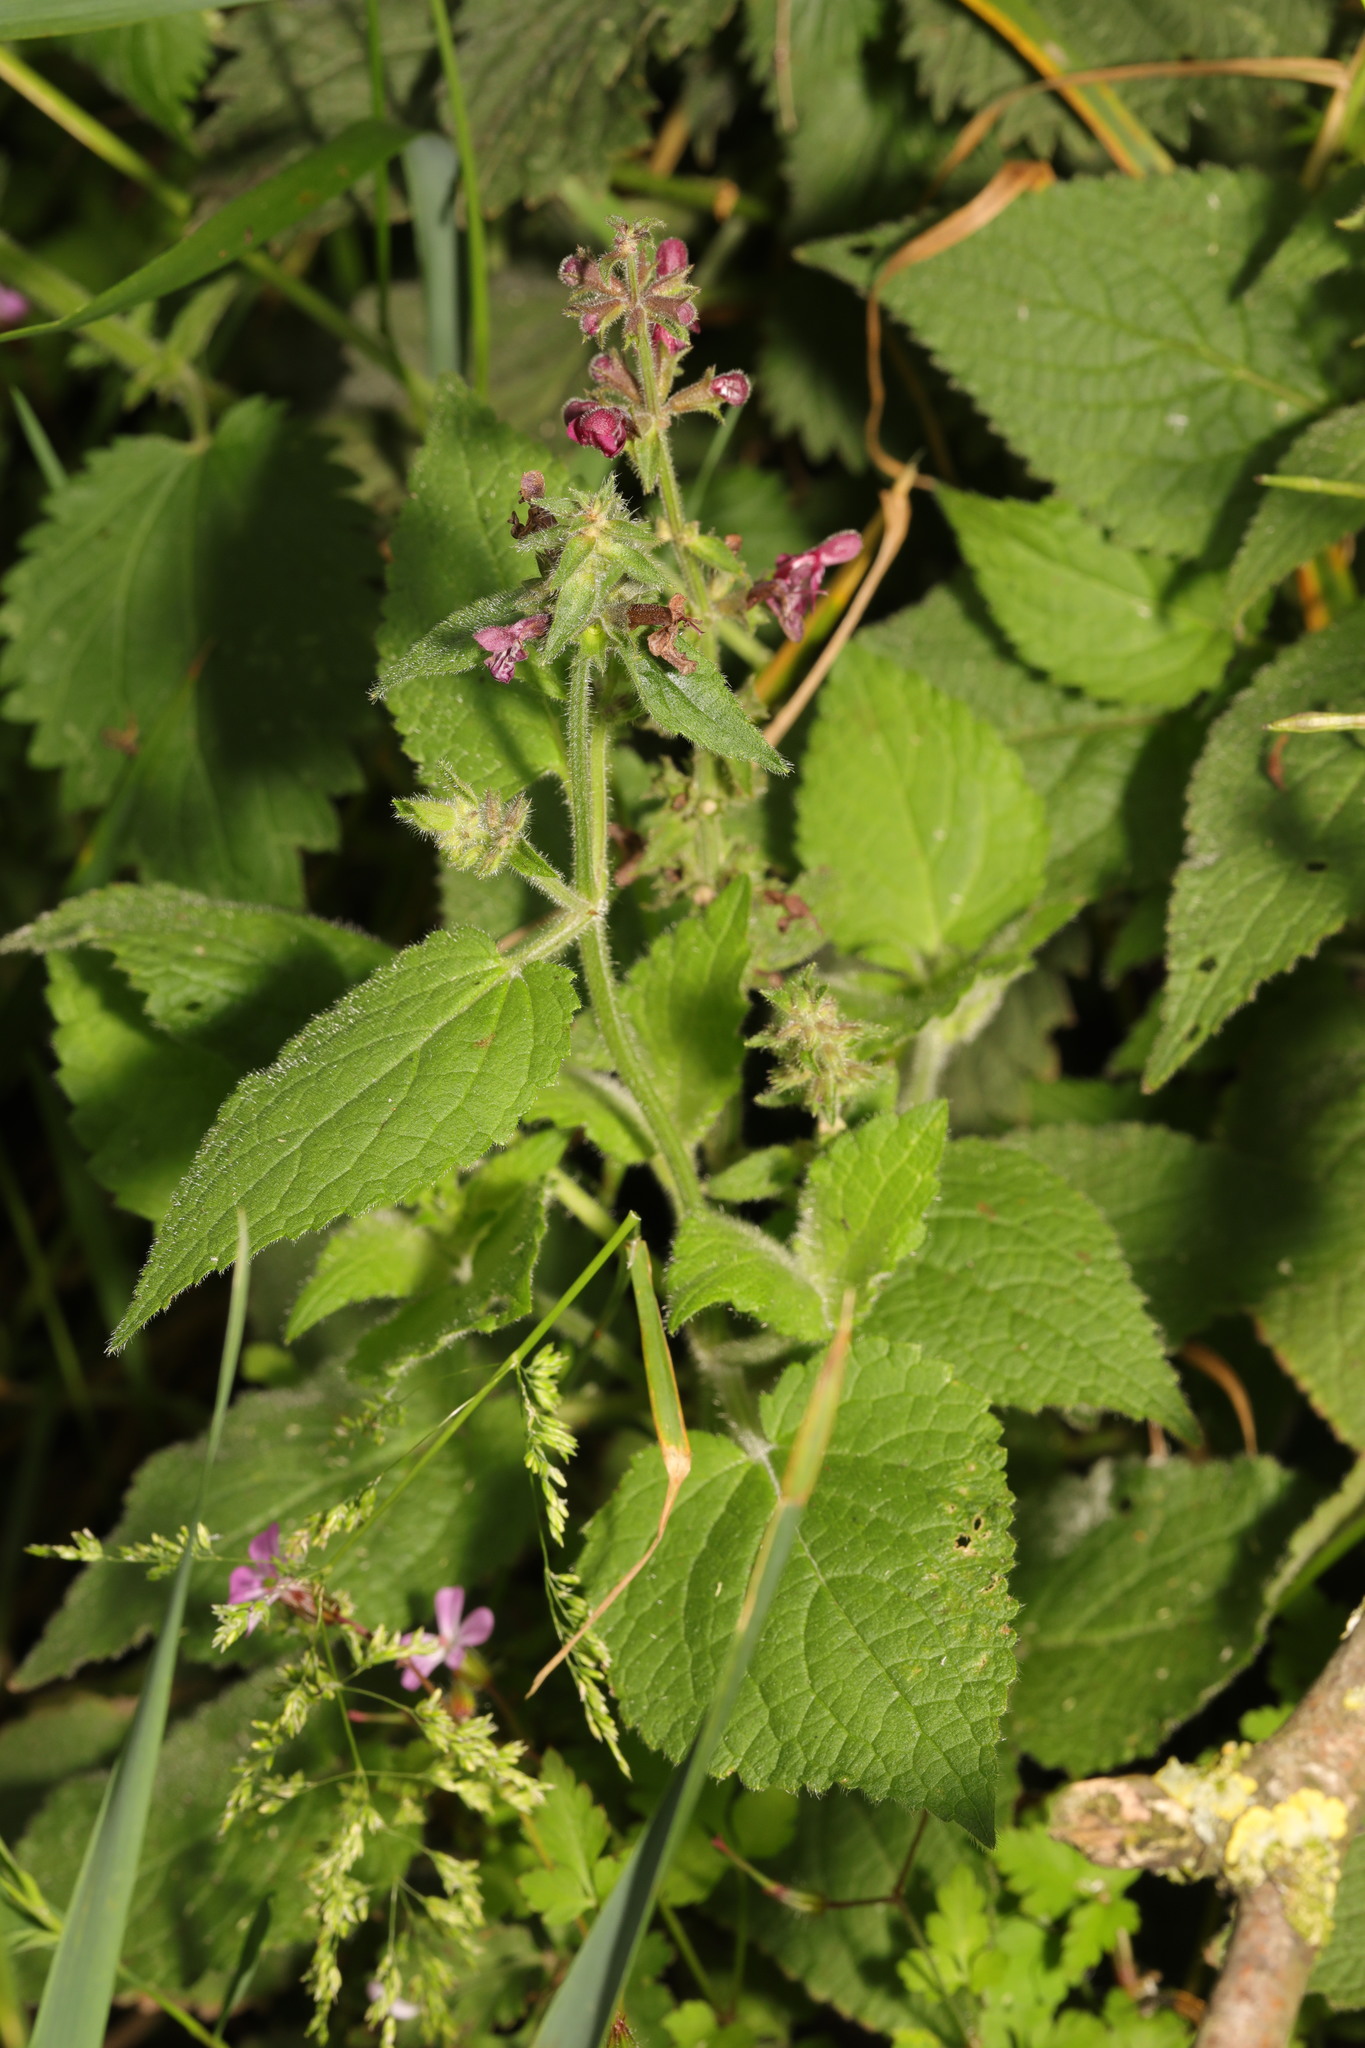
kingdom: Plantae
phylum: Tracheophyta
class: Magnoliopsida
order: Lamiales
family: Lamiaceae
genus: Stachys
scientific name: Stachys sylvatica
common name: Hedge woundwort
